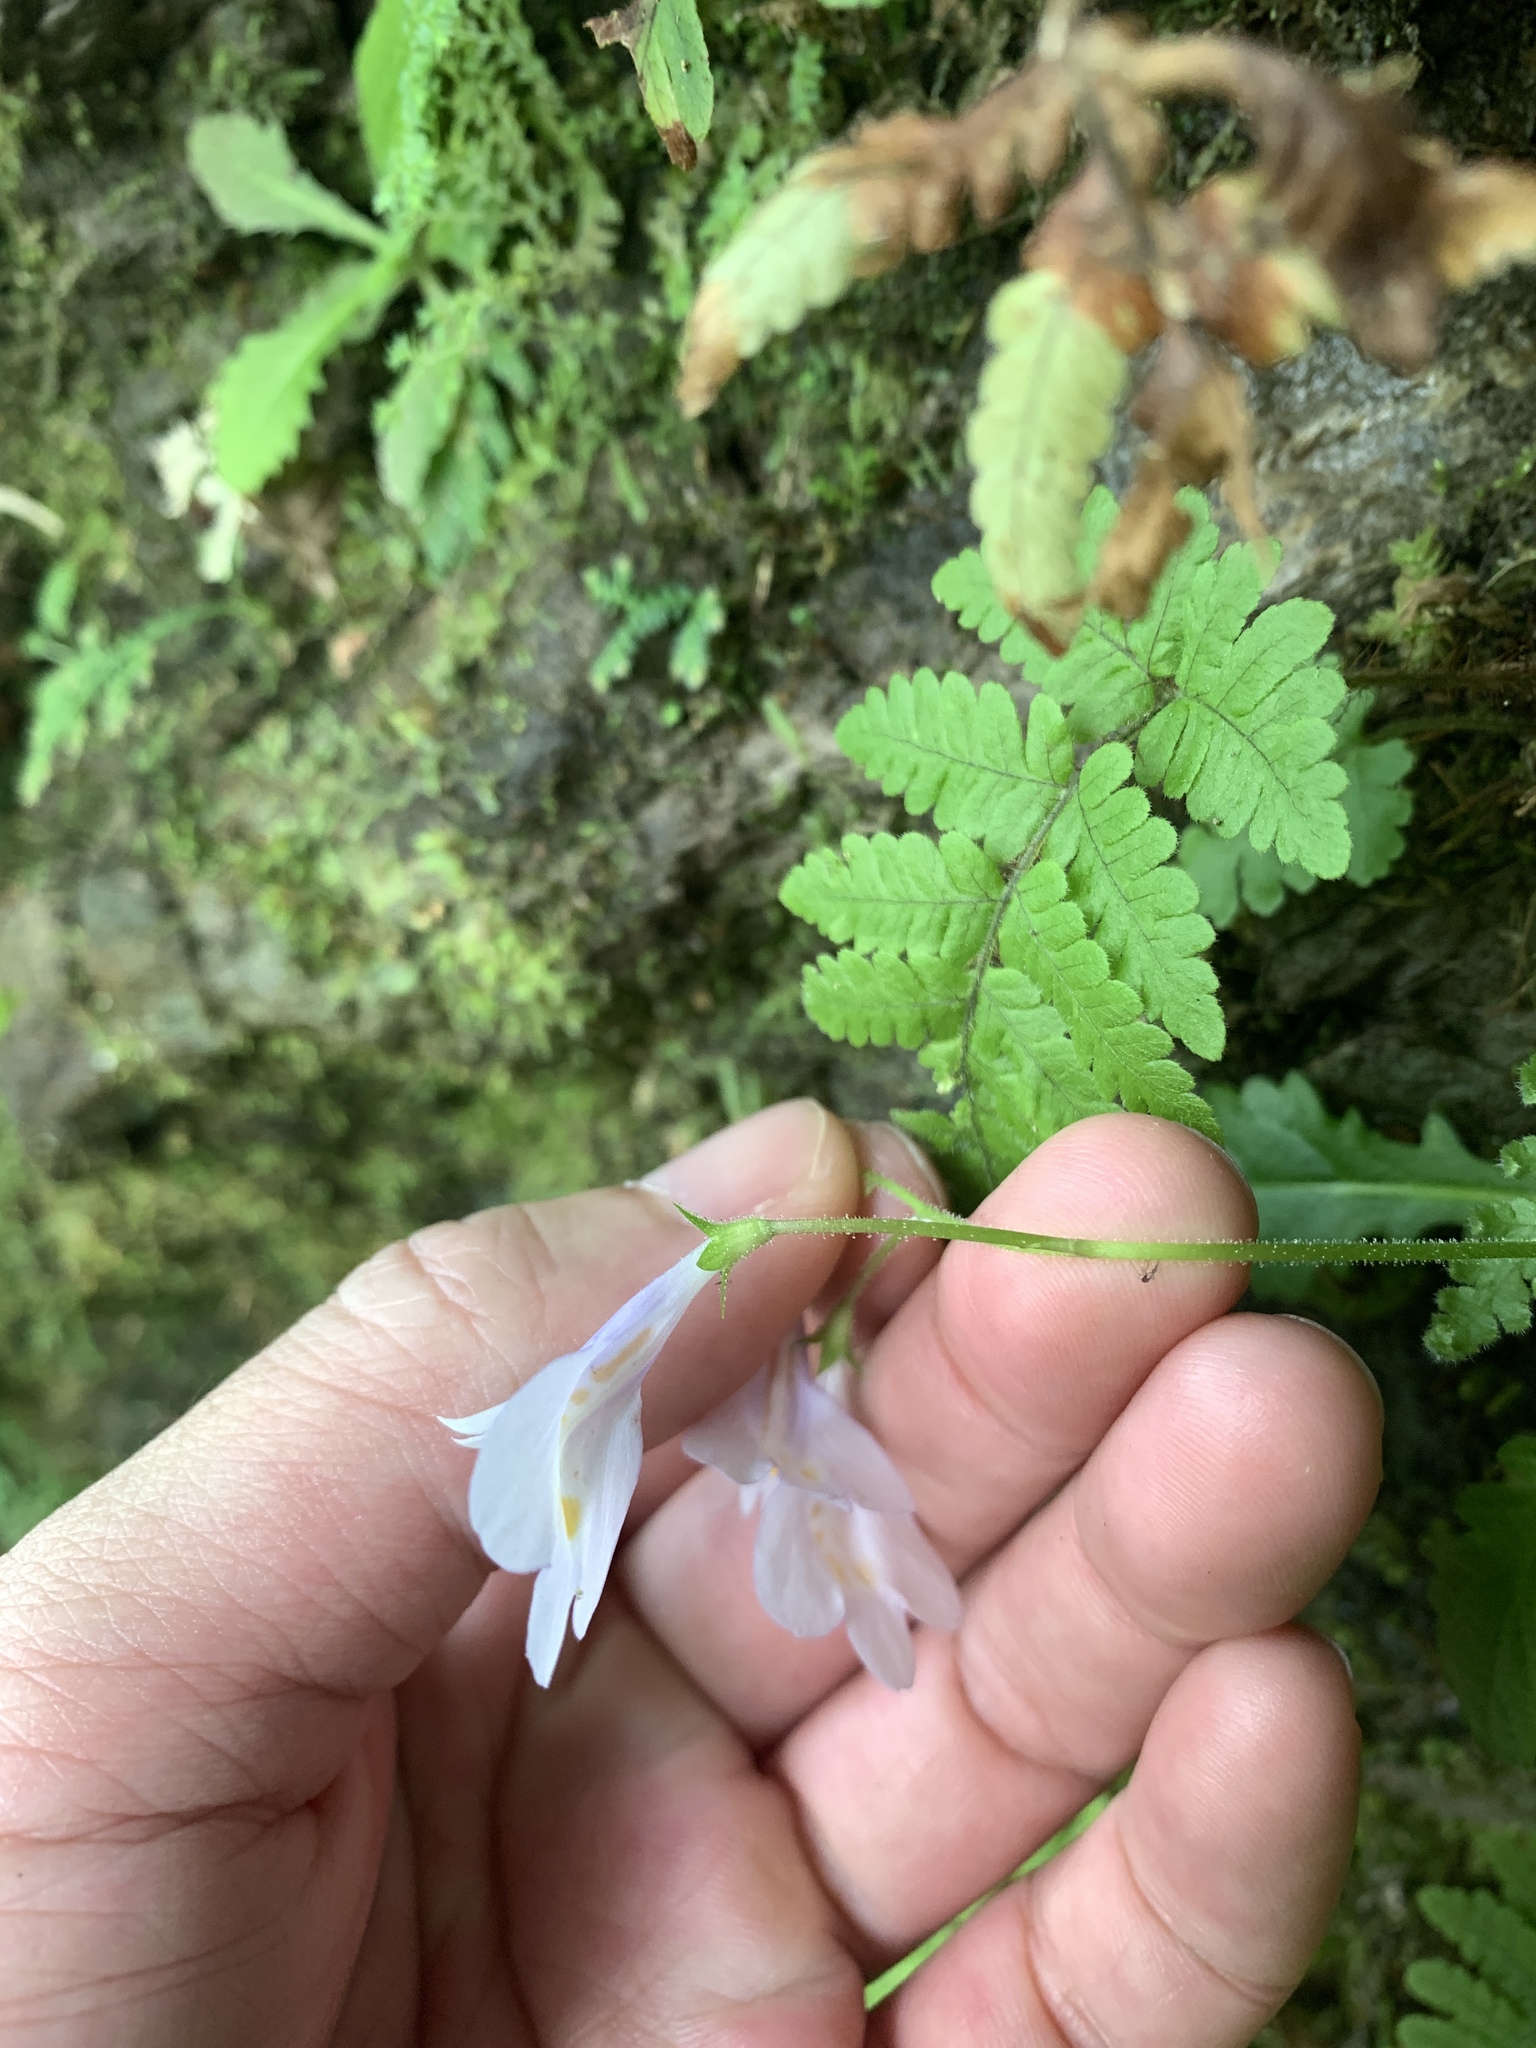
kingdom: Plantae
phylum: Tracheophyta
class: Magnoliopsida
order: Lamiales
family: Mazaceae
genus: Mazus
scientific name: Mazus fauriei
